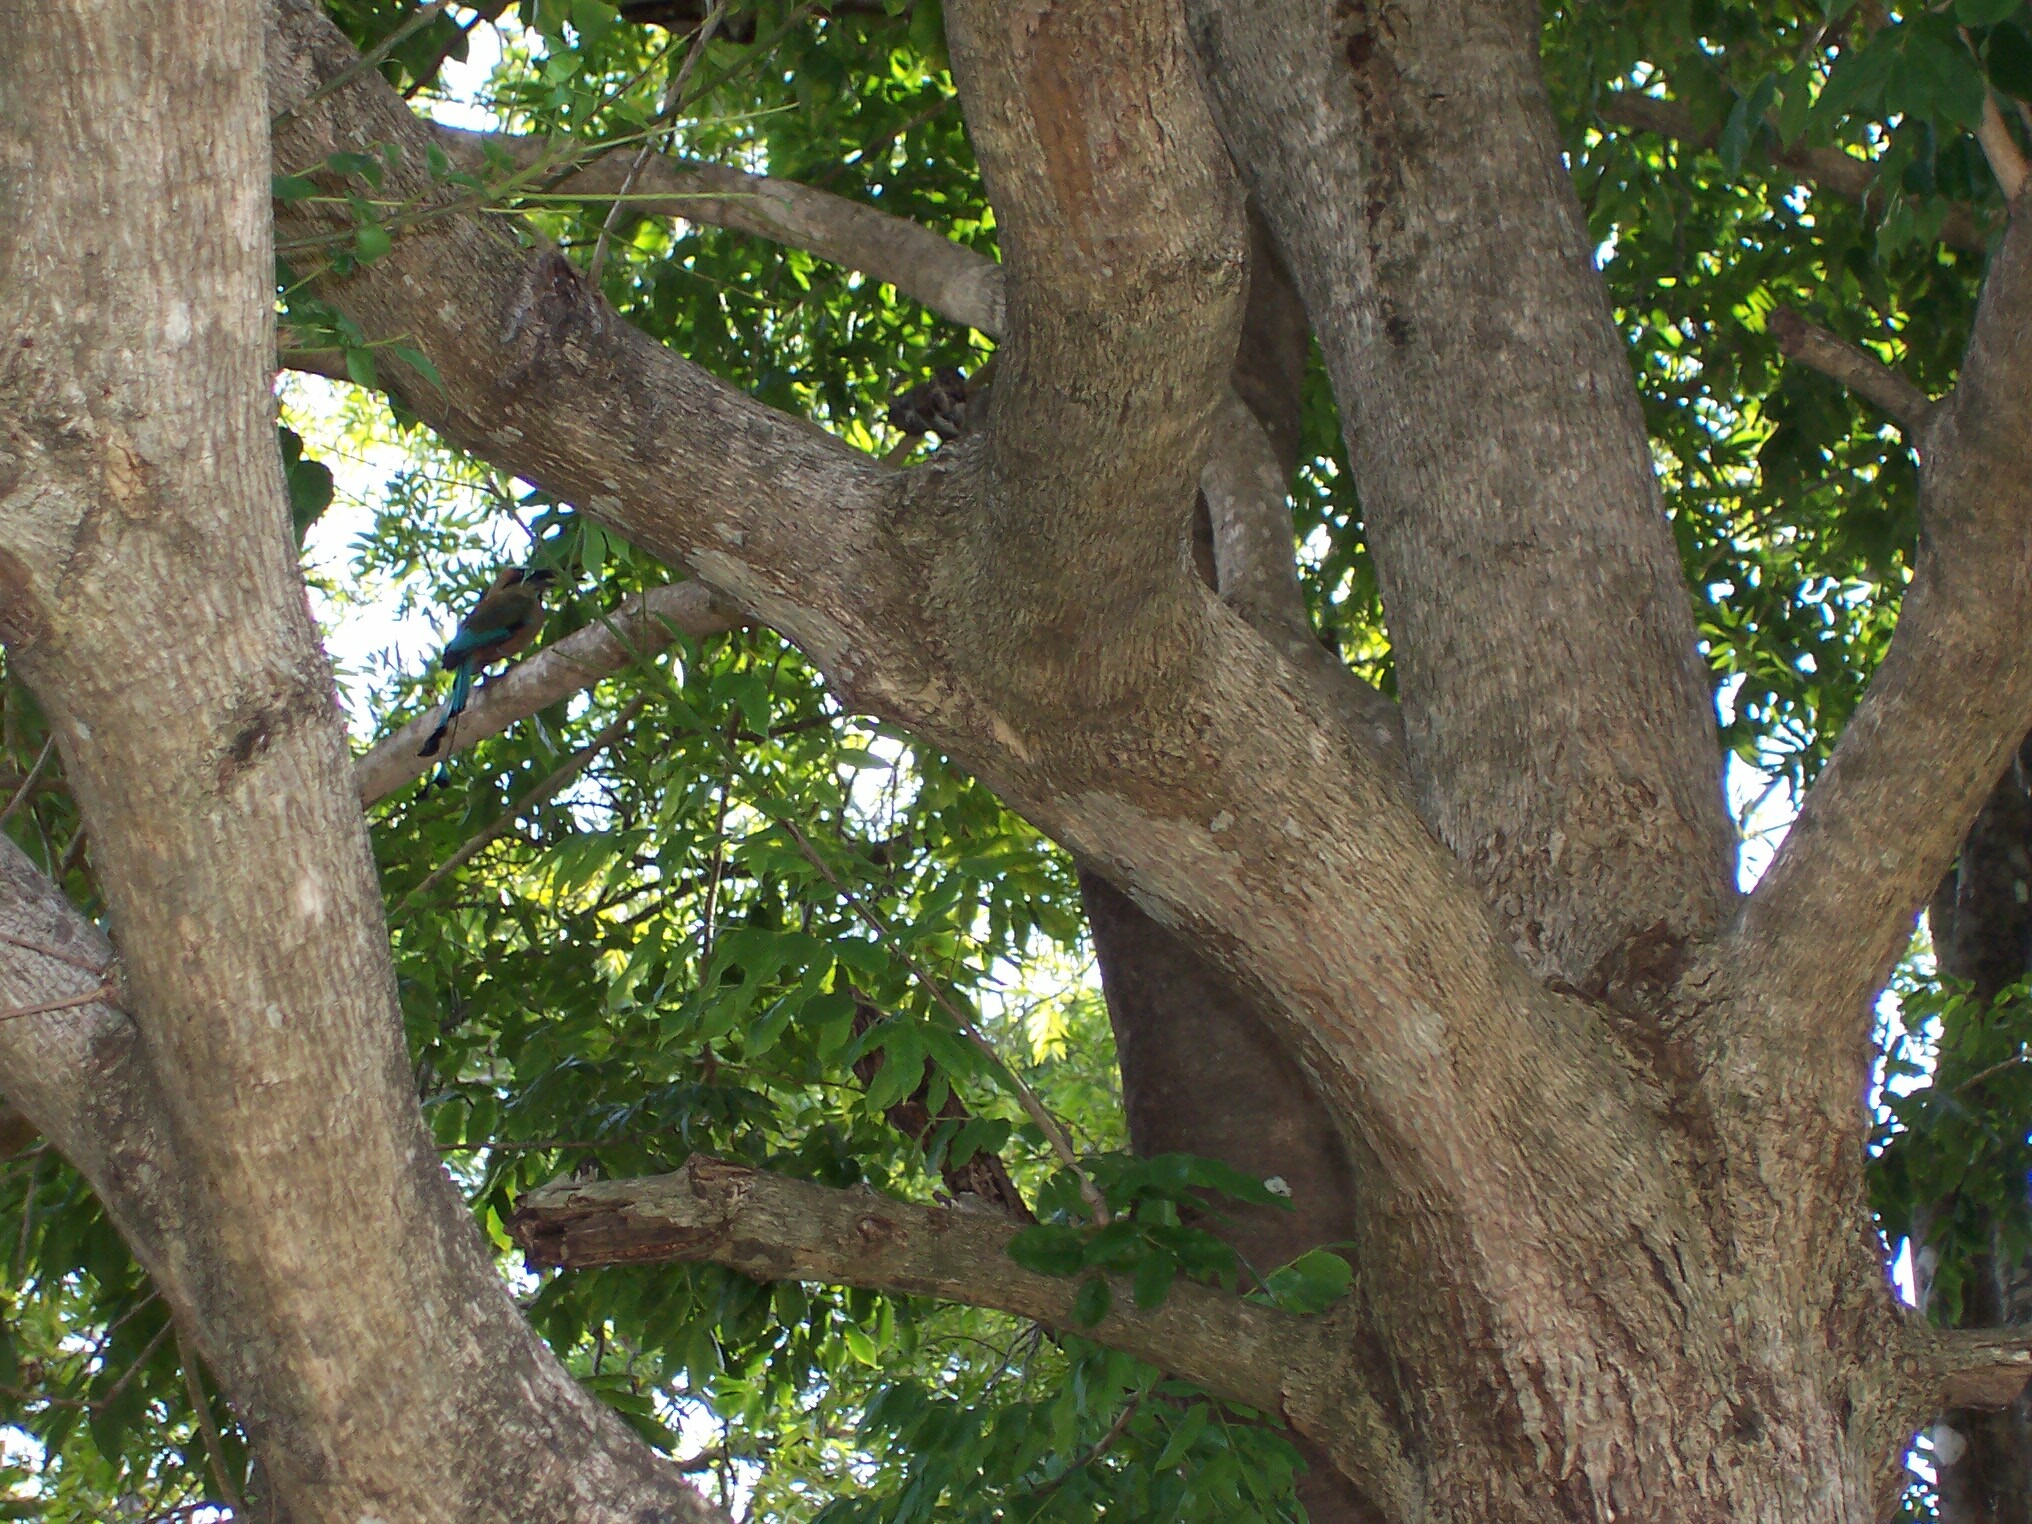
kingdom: Animalia
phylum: Chordata
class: Aves
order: Coraciiformes
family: Momotidae
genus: Eumomota
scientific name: Eumomota superciliosa
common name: Turquoise-browed motmot
